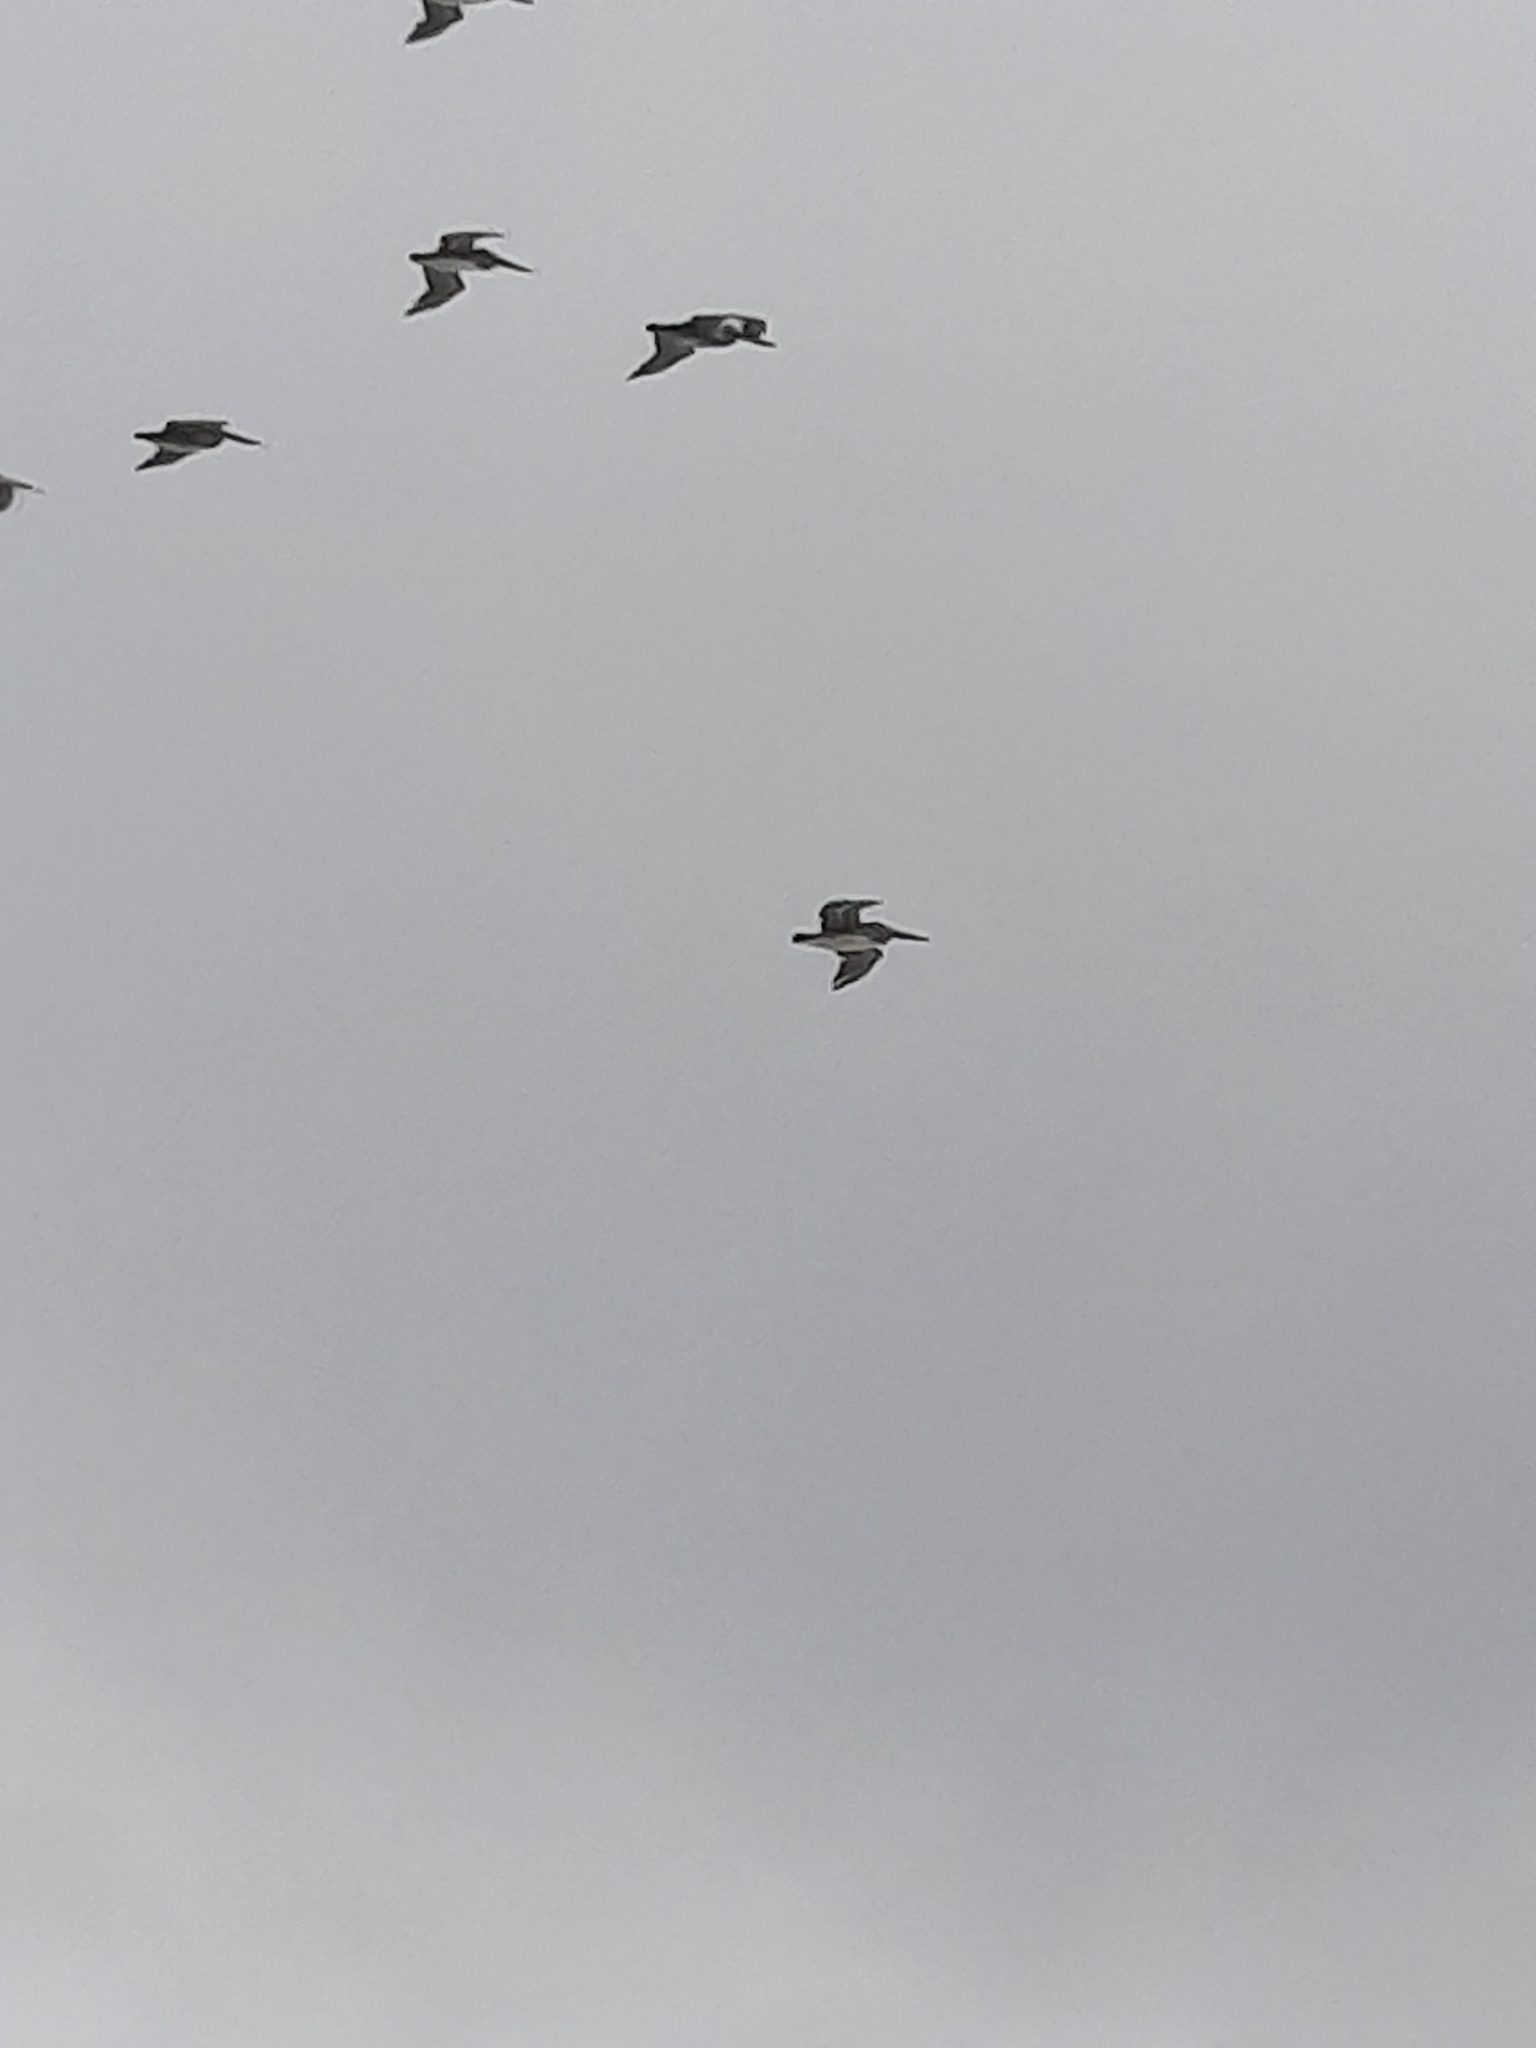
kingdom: Animalia
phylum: Chordata
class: Aves
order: Pelecaniformes
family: Pelecanidae
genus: Pelecanus
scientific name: Pelecanus occidentalis
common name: Brown pelican
